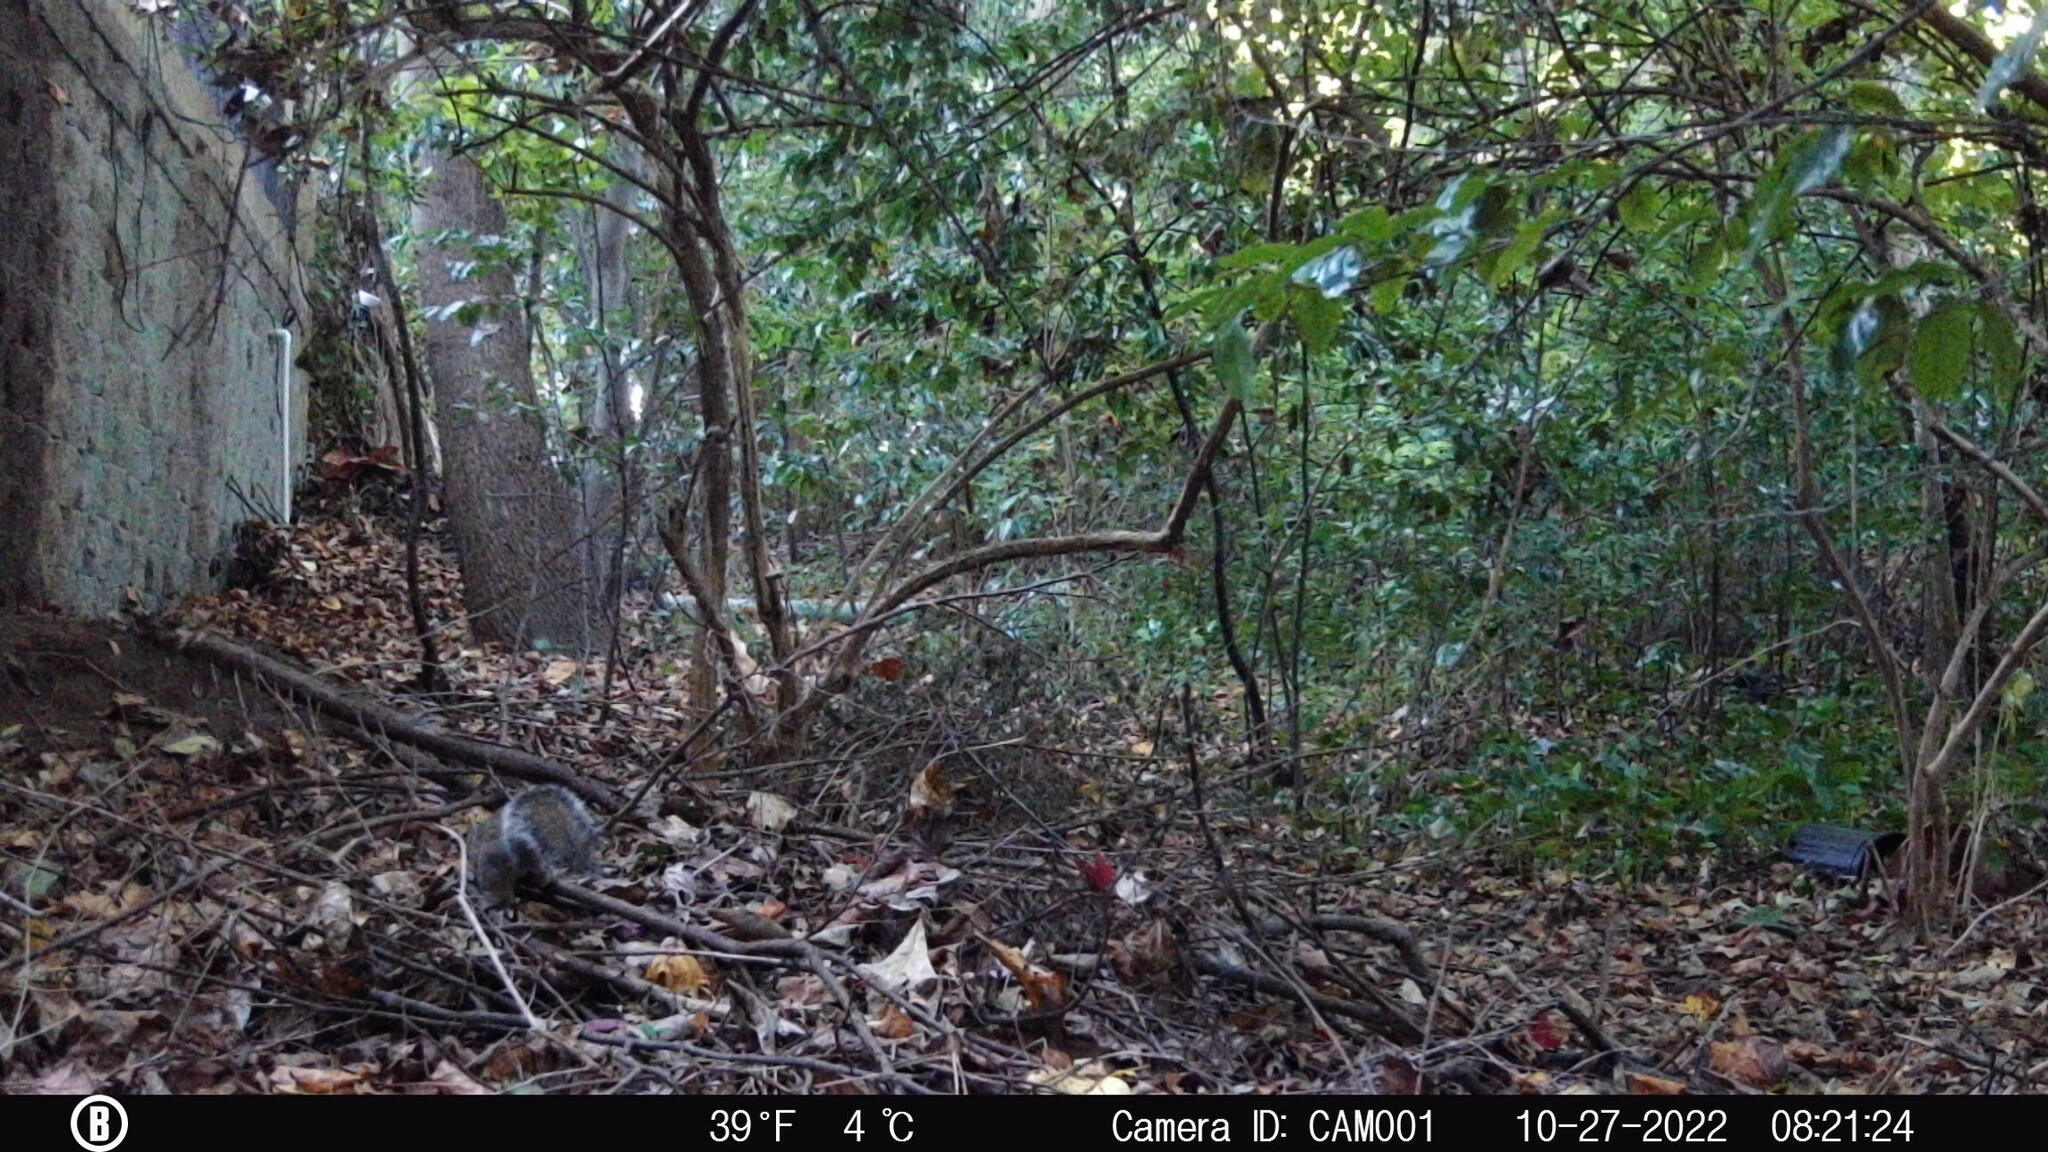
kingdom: Animalia
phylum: Chordata
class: Mammalia
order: Rodentia
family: Sciuridae
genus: Sciurus
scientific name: Sciurus carolinensis
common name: Eastern gray squirrel
